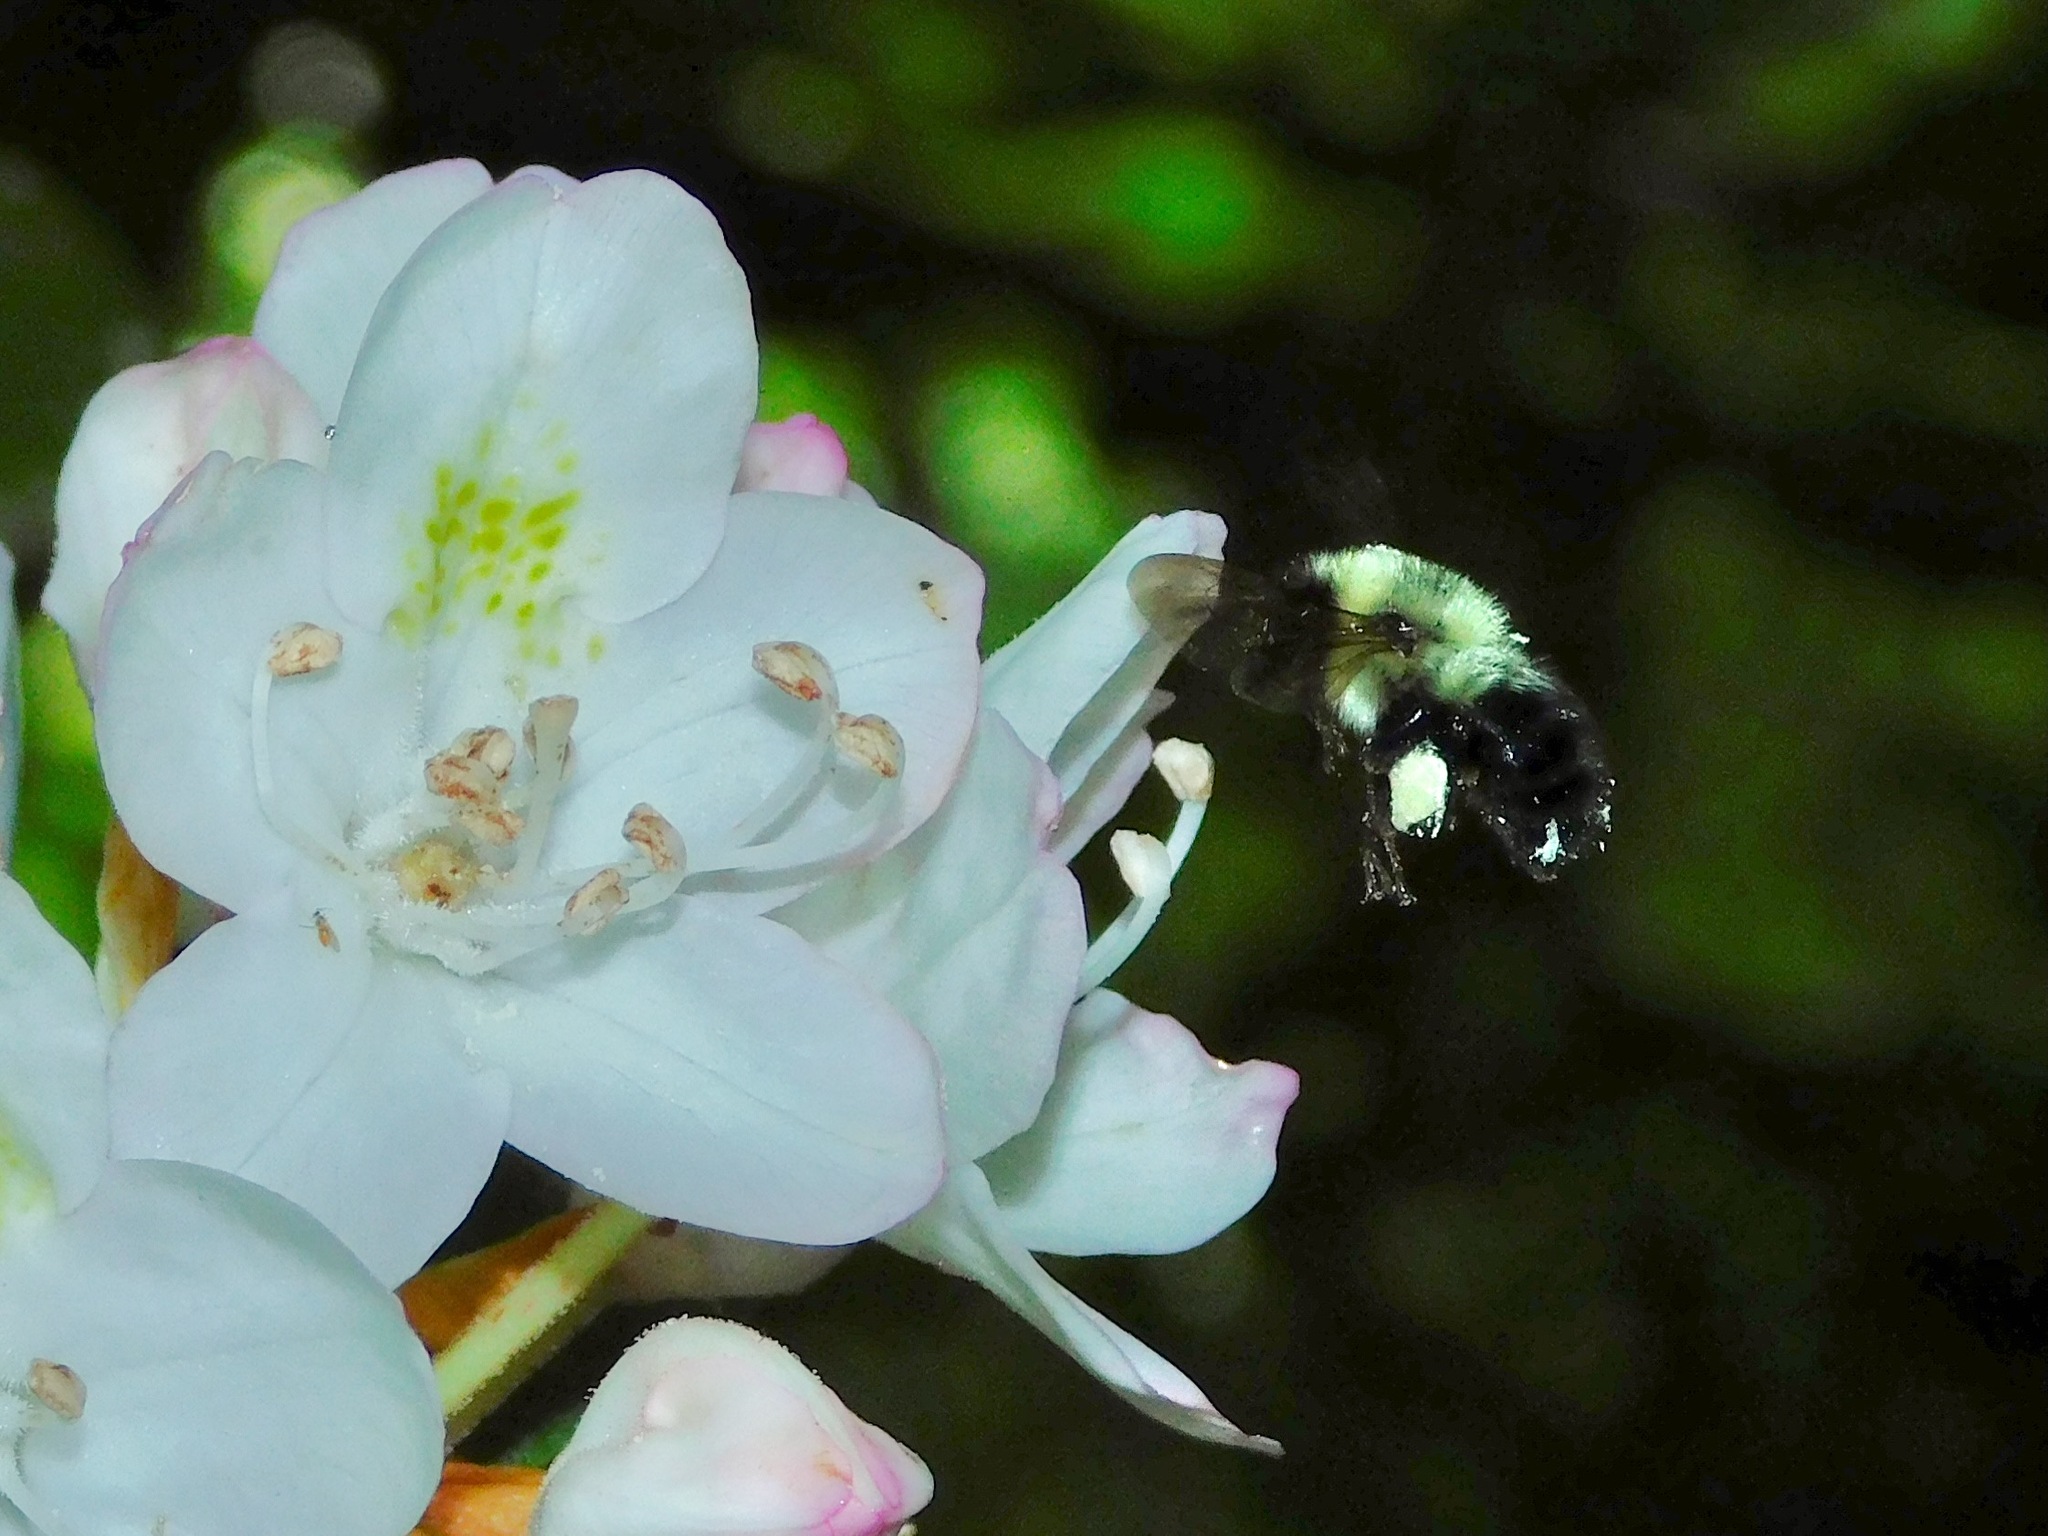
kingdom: Animalia
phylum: Arthropoda
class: Insecta
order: Hymenoptera
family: Apidae
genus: Bombus
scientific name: Bombus bimaculatus
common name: Two-spotted bumble bee
